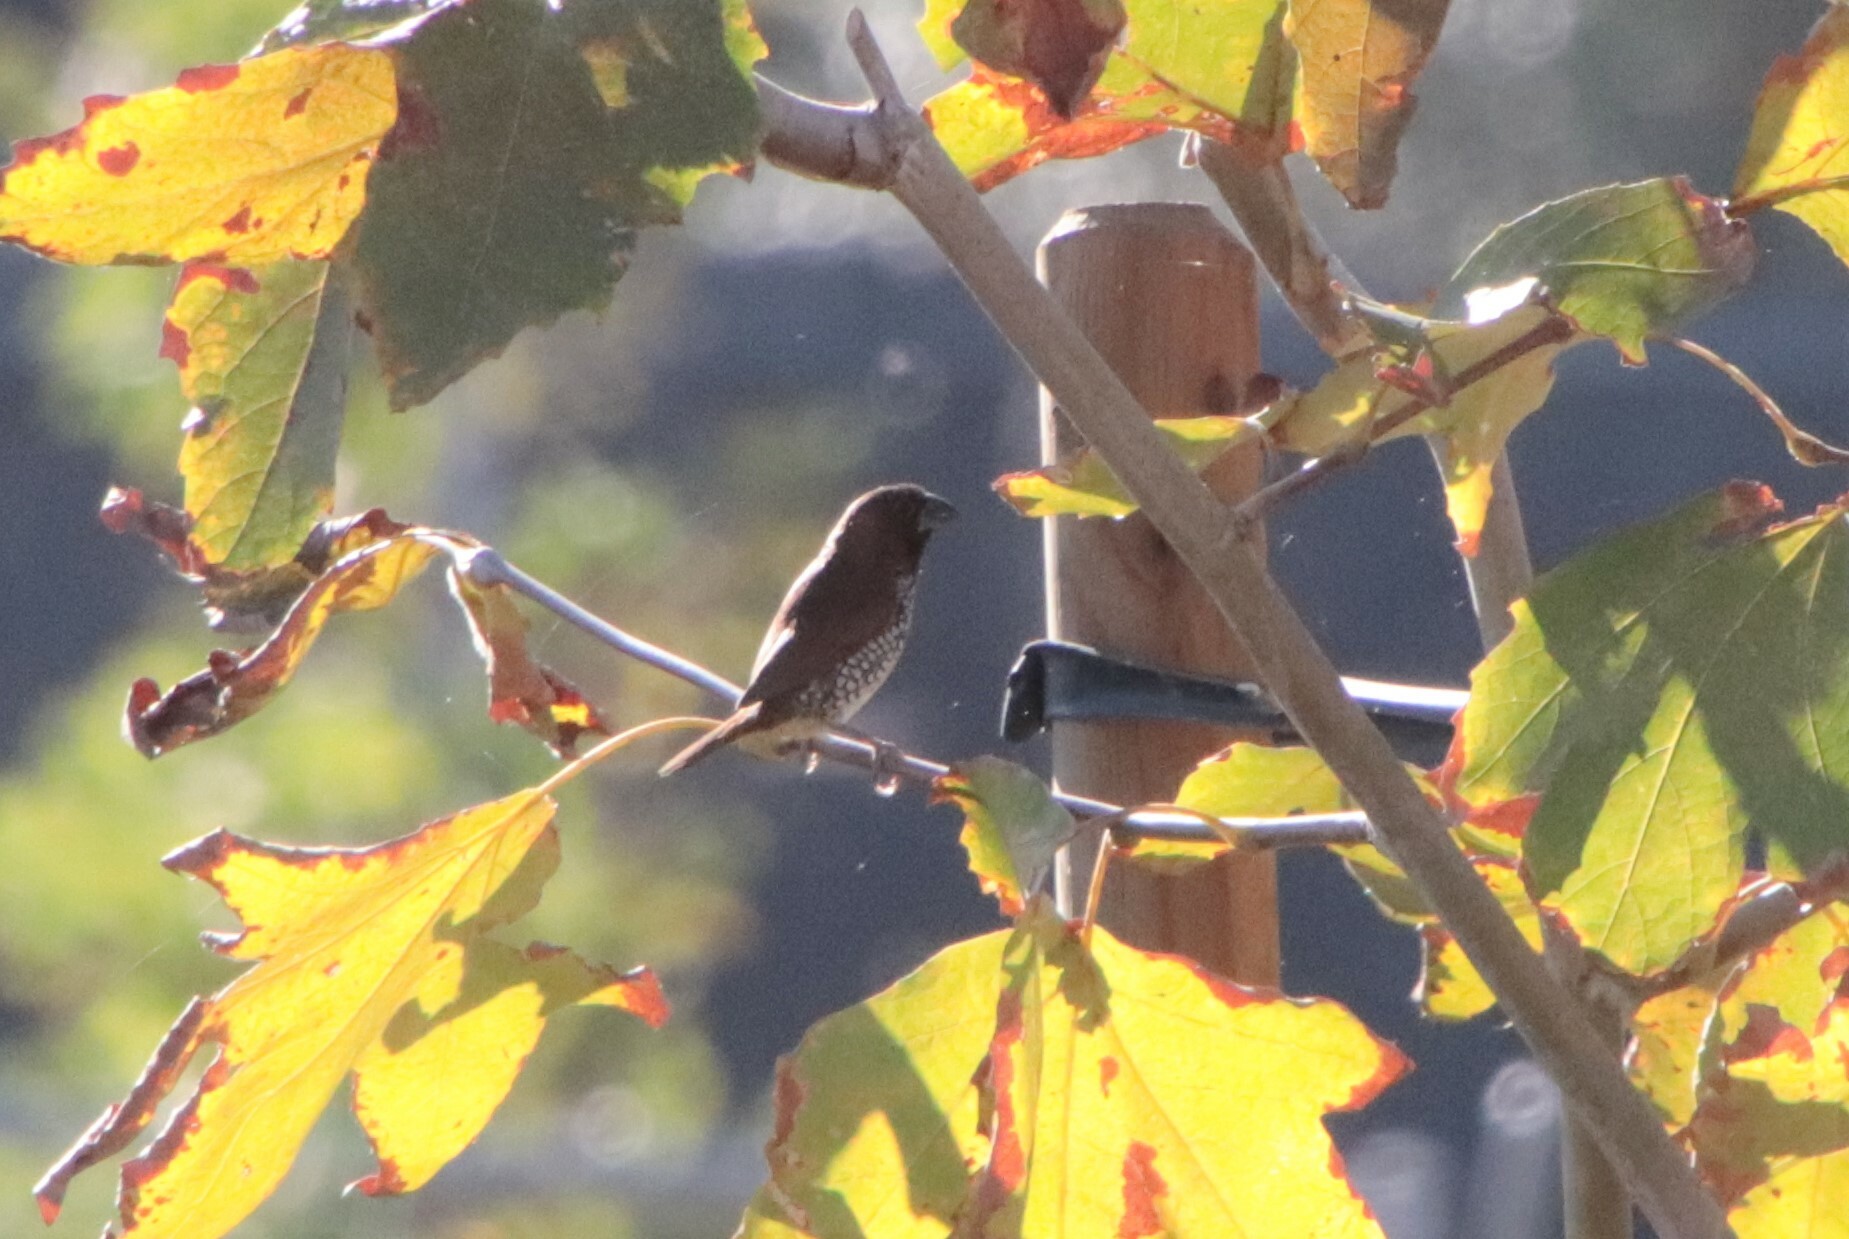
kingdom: Animalia
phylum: Chordata
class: Aves
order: Passeriformes
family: Estrildidae
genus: Lonchura
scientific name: Lonchura punctulata
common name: Scaly-breasted munia
